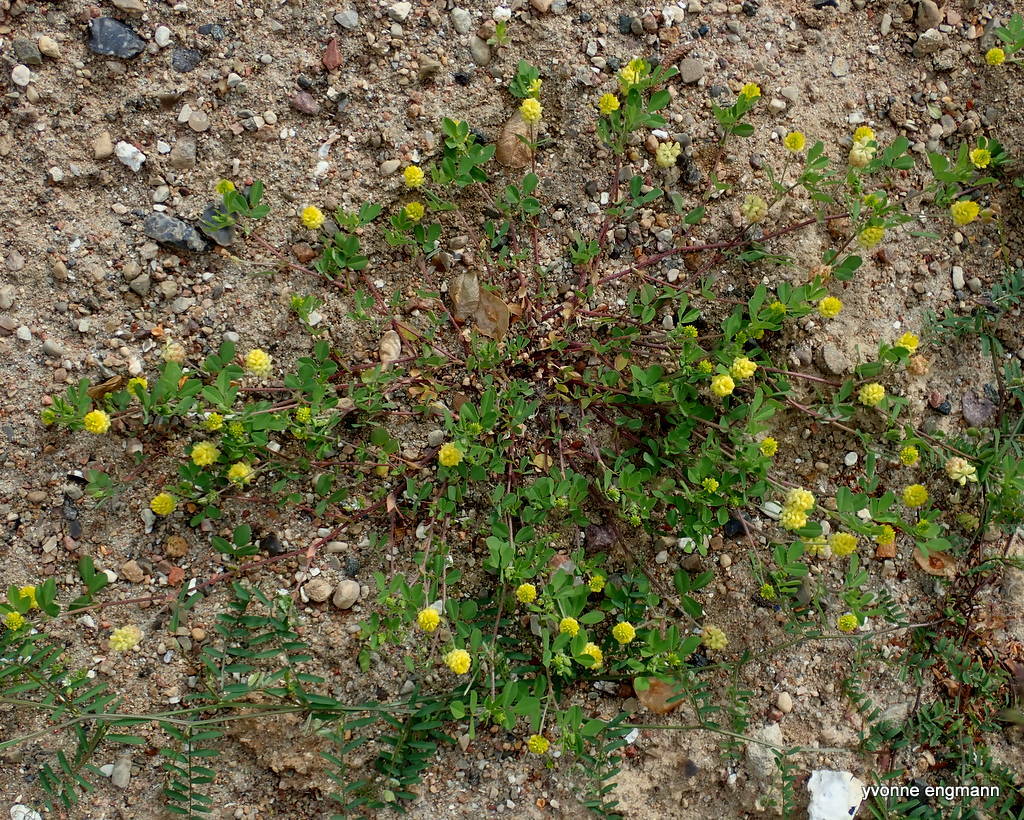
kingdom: Plantae
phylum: Tracheophyta
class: Magnoliopsida
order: Fabales
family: Fabaceae
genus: Trifolium
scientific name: Trifolium campestre
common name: Field clover
